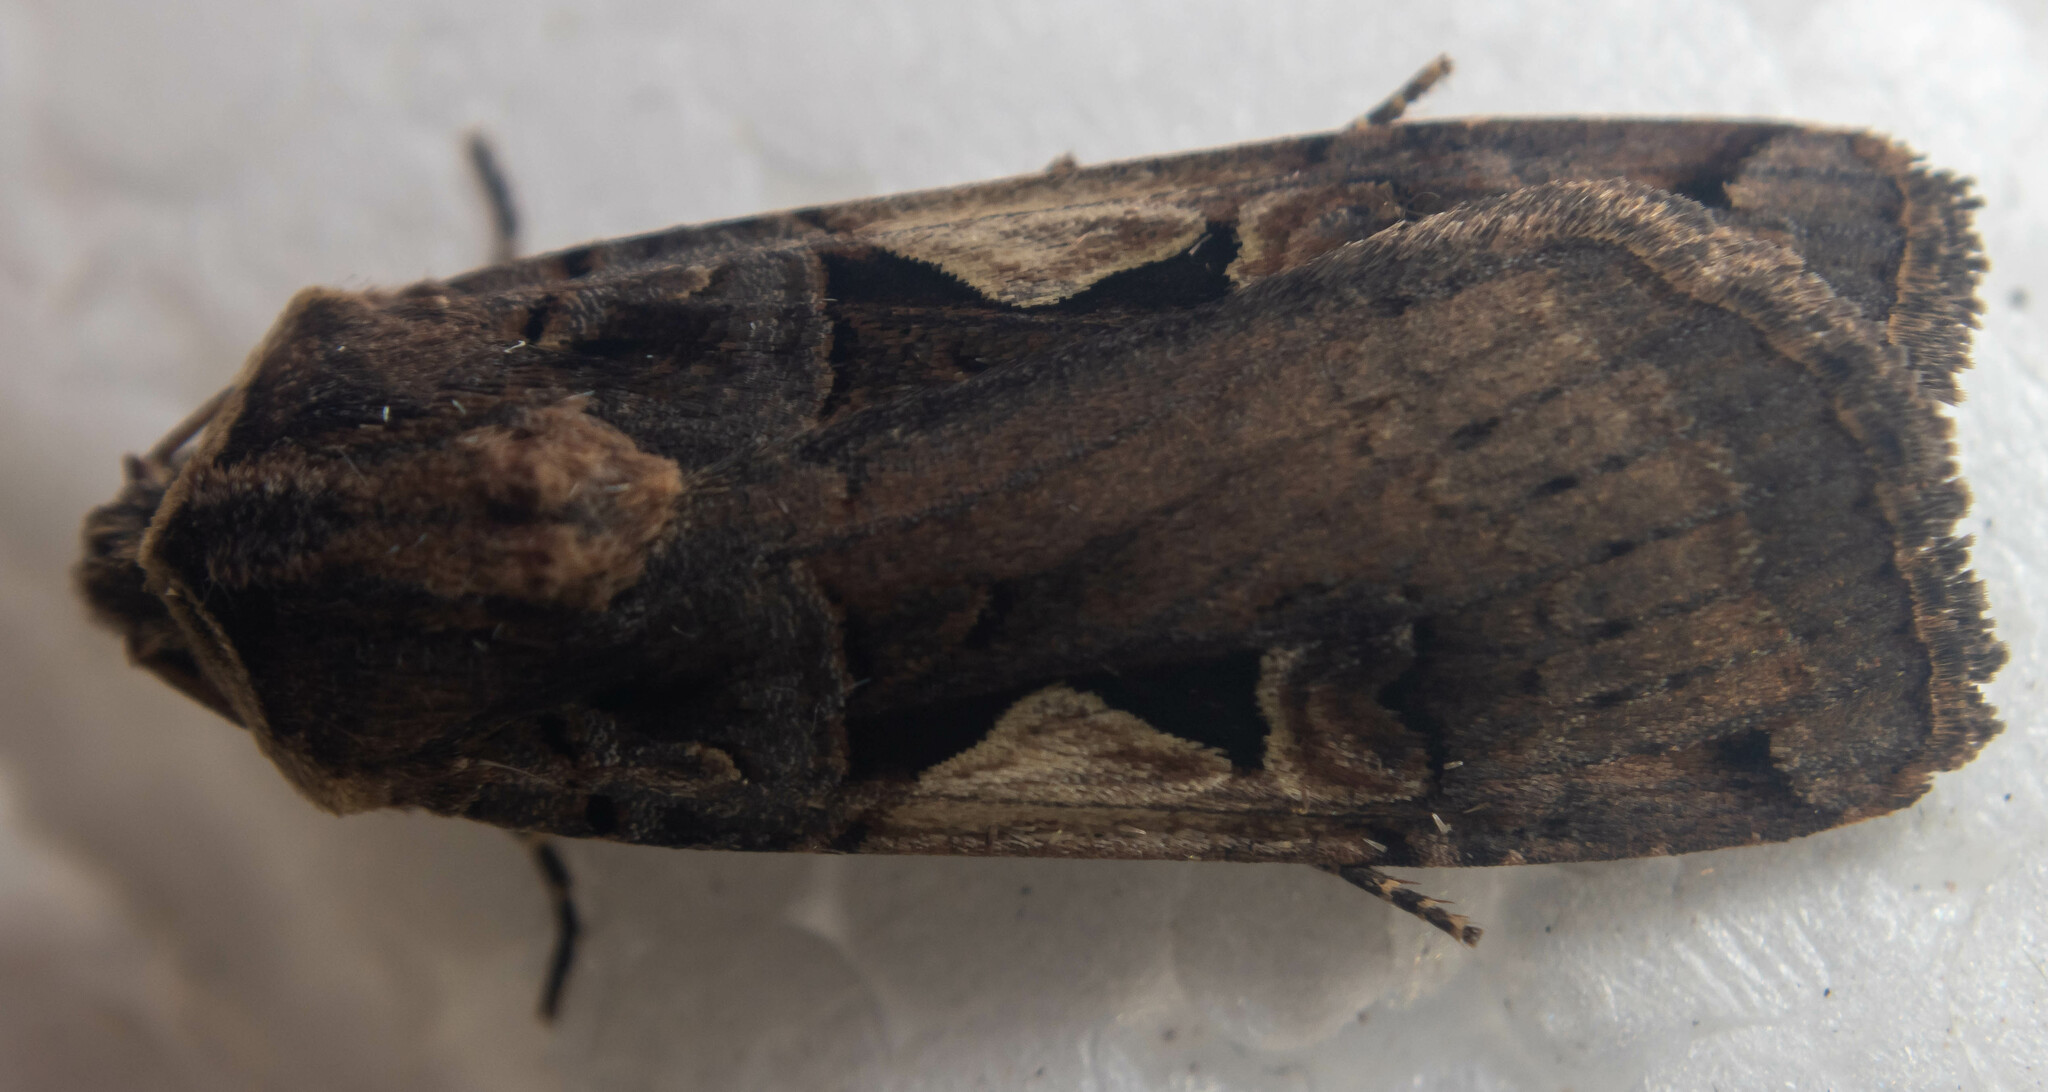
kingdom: Animalia
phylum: Arthropoda
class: Insecta
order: Lepidoptera
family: Noctuidae
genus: Xestia
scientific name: Xestia c-nigrum
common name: Setaceous hebrew character
